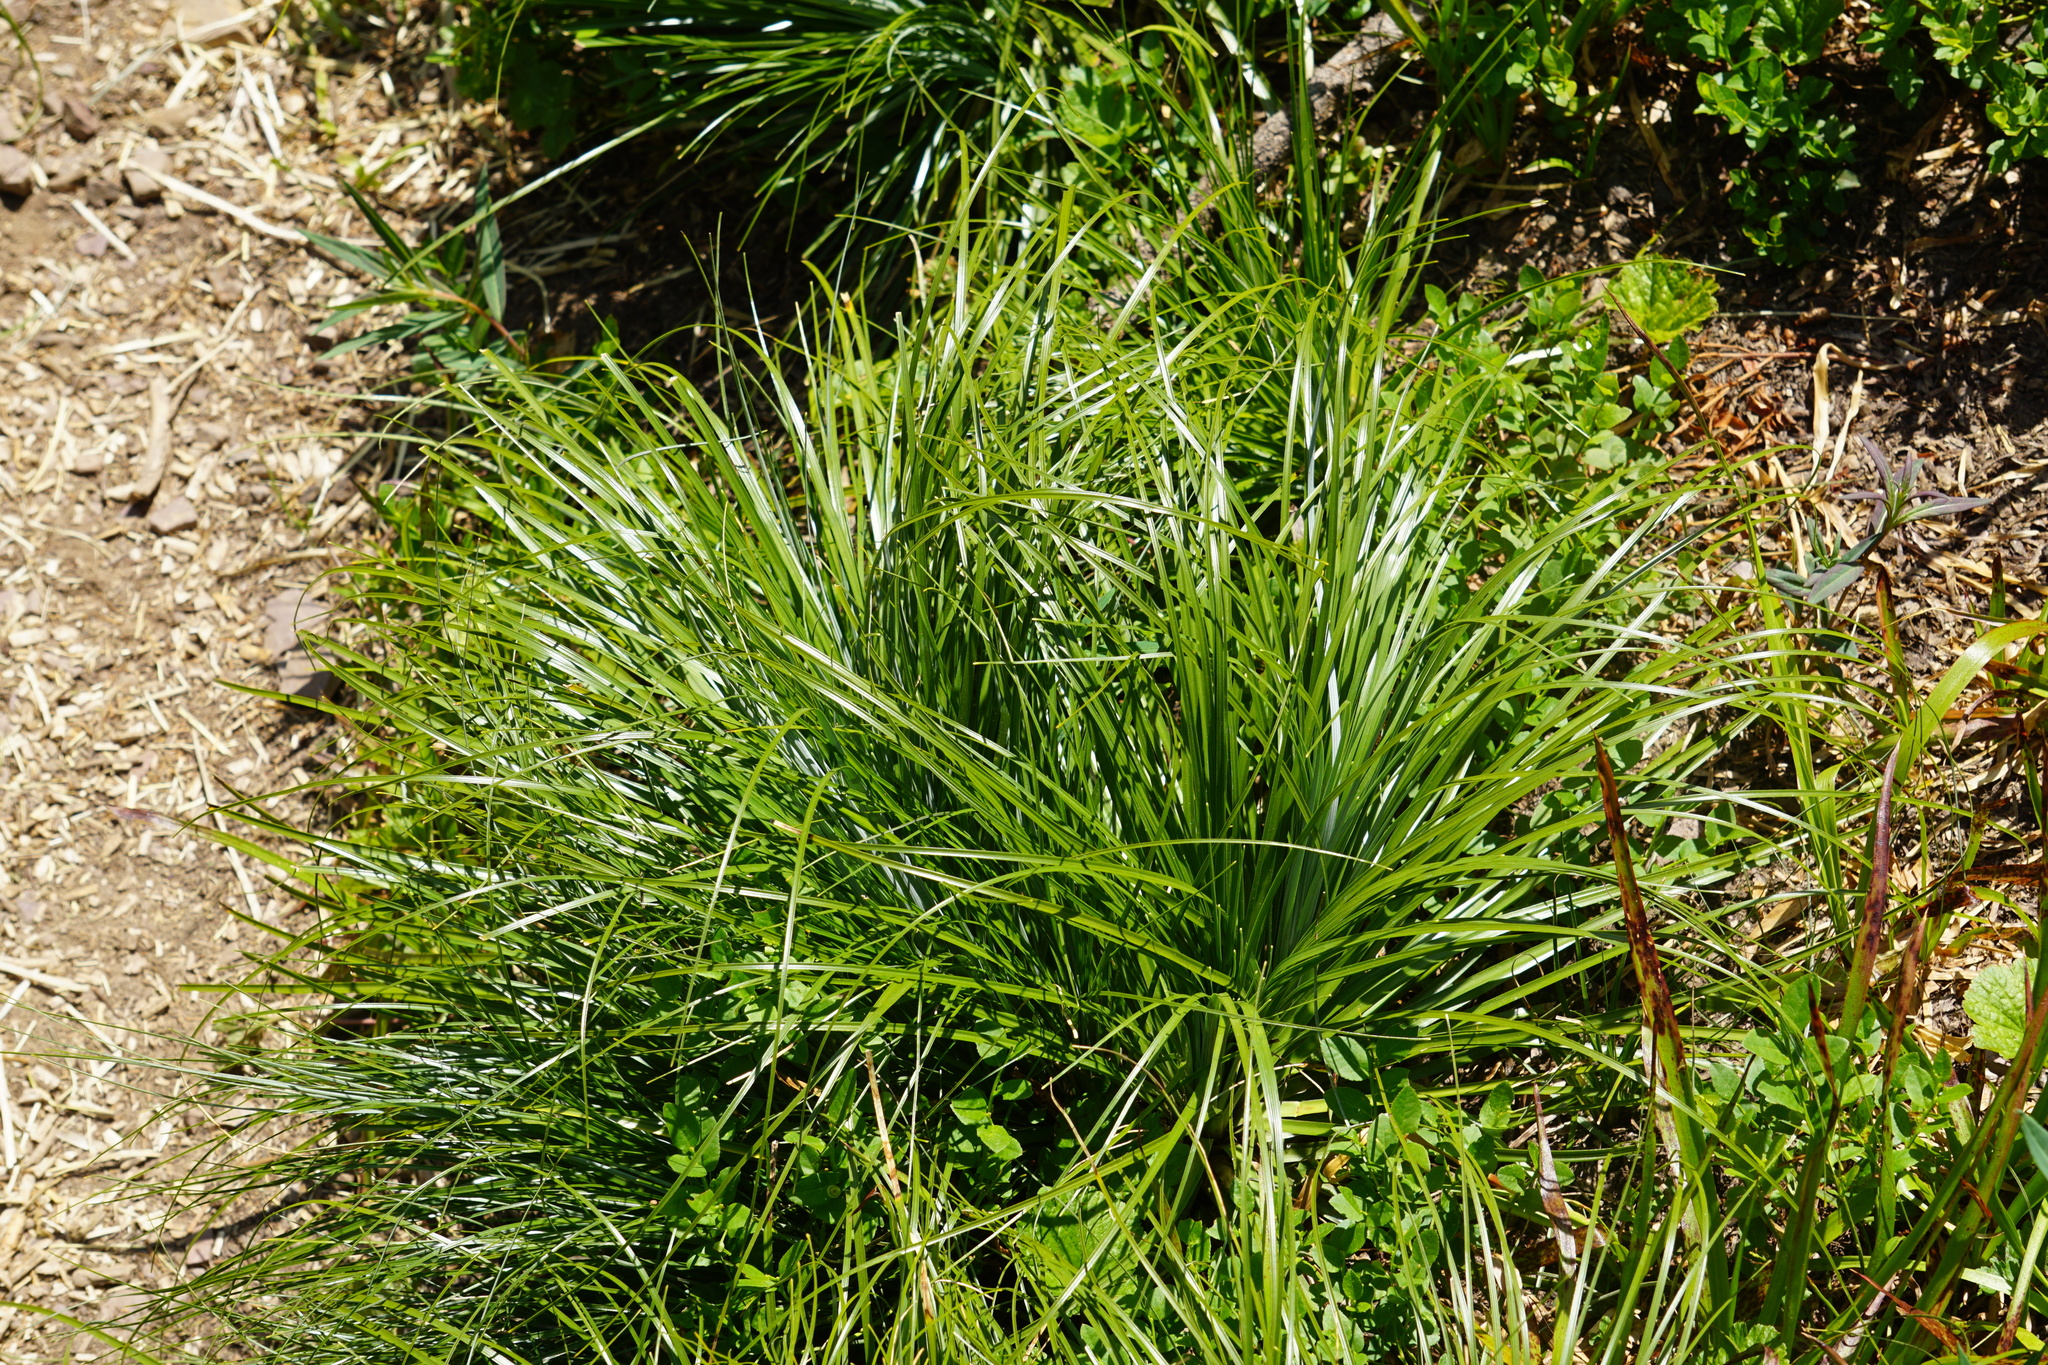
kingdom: Plantae
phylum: Tracheophyta
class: Liliopsida
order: Liliales
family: Melanthiaceae
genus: Xerophyllum
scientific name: Xerophyllum tenax
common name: Bear-grass
